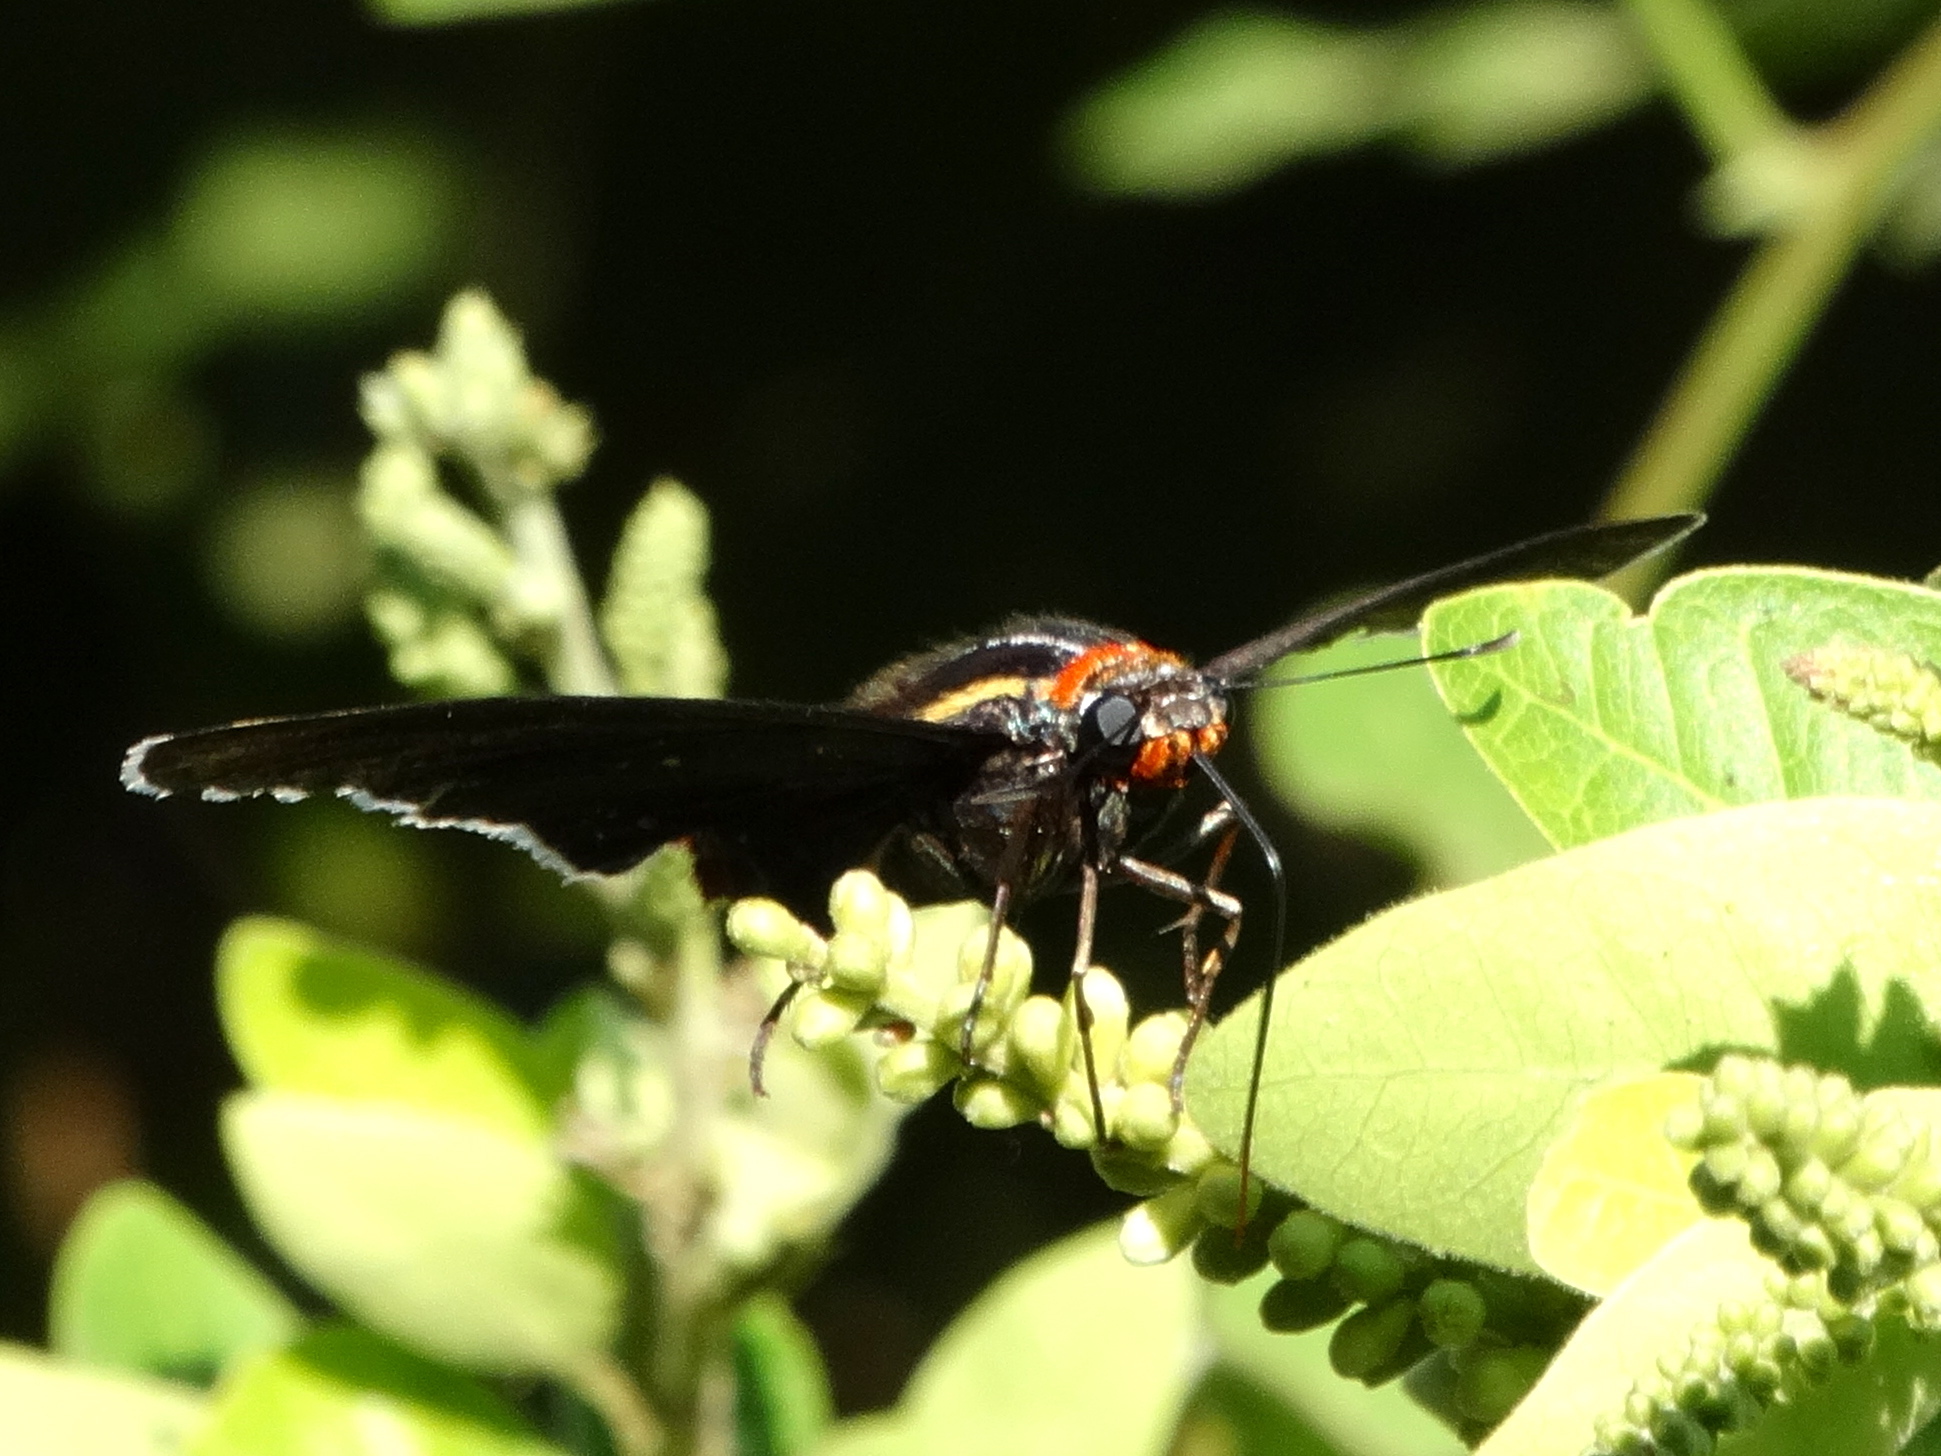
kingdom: Animalia
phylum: Arthropoda
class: Insecta
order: Lepidoptera
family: Hesperiidae
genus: Elbella
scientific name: Elbella scylla
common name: Scylla firetip
